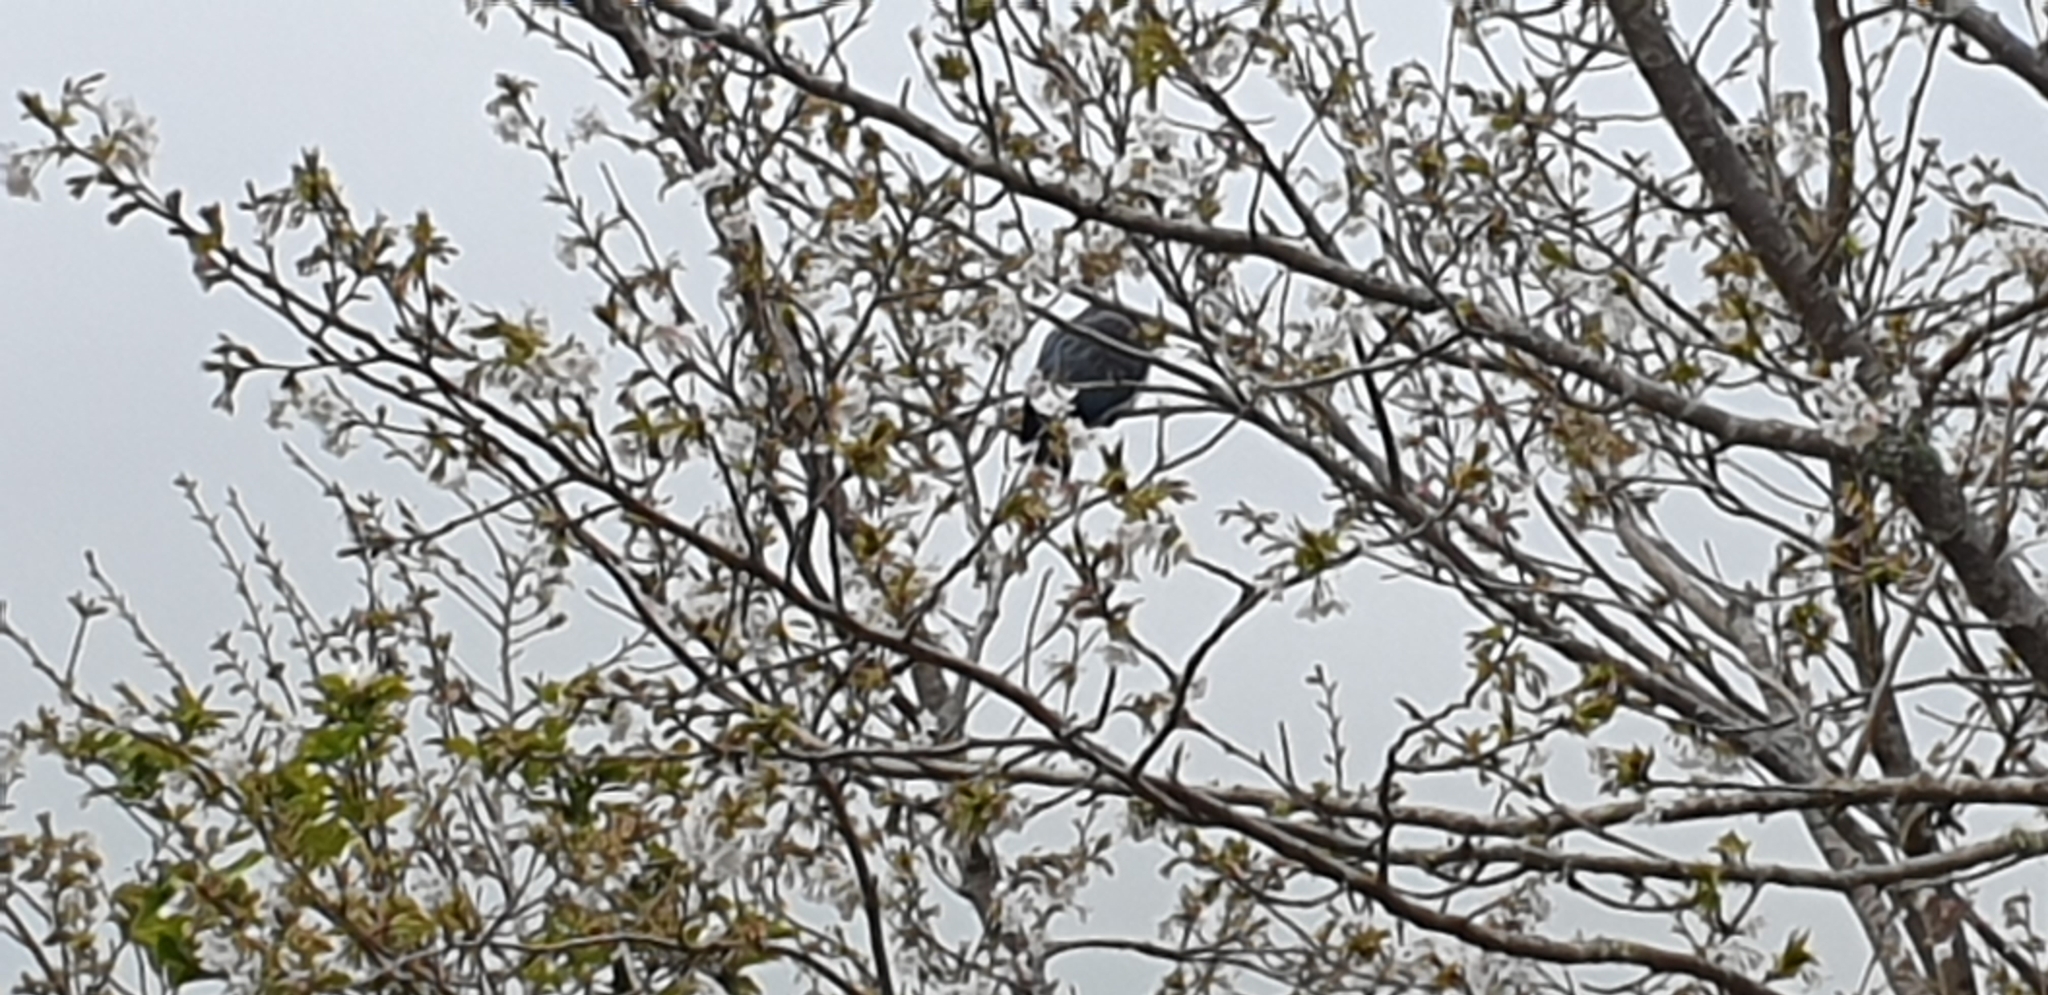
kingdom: Animalia
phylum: Chordata
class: Aves
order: Columbiformes
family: Columbidae
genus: Hemiphaga
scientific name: Hemiphaga novaeseelandiae
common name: New zealand pigeon
